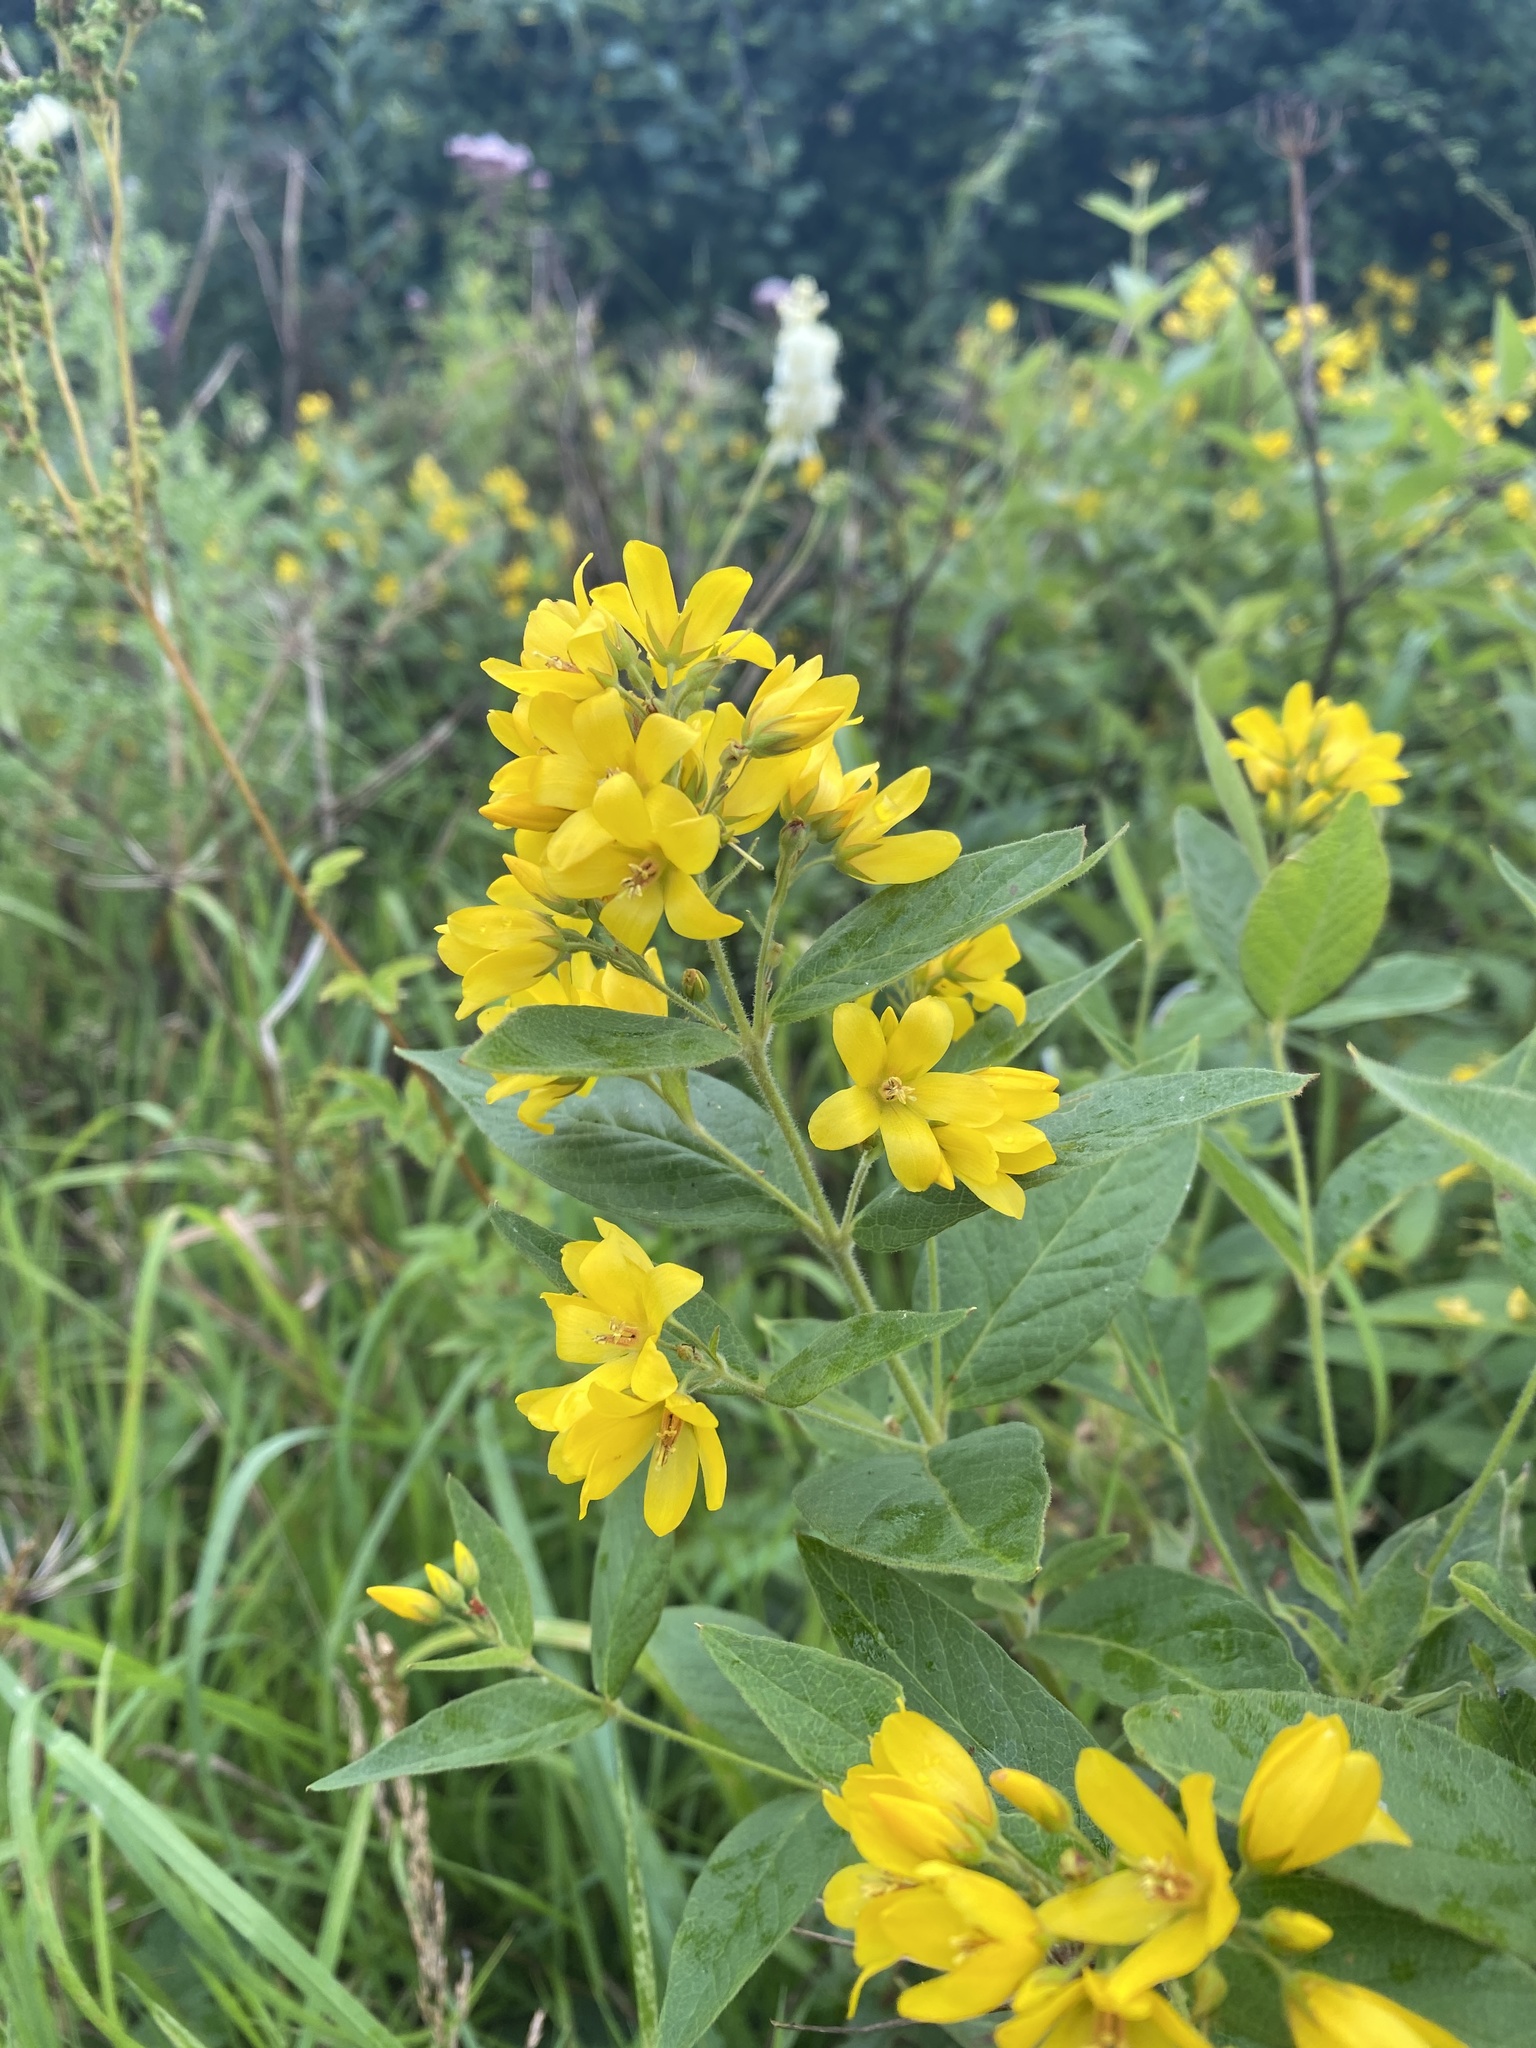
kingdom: Plantae
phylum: Tracheophyta
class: Magnoliopsida
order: Ericales
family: Primulaceae
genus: Lysimachia
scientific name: Lysimachia vulgaris
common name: Yellow loosestrife
